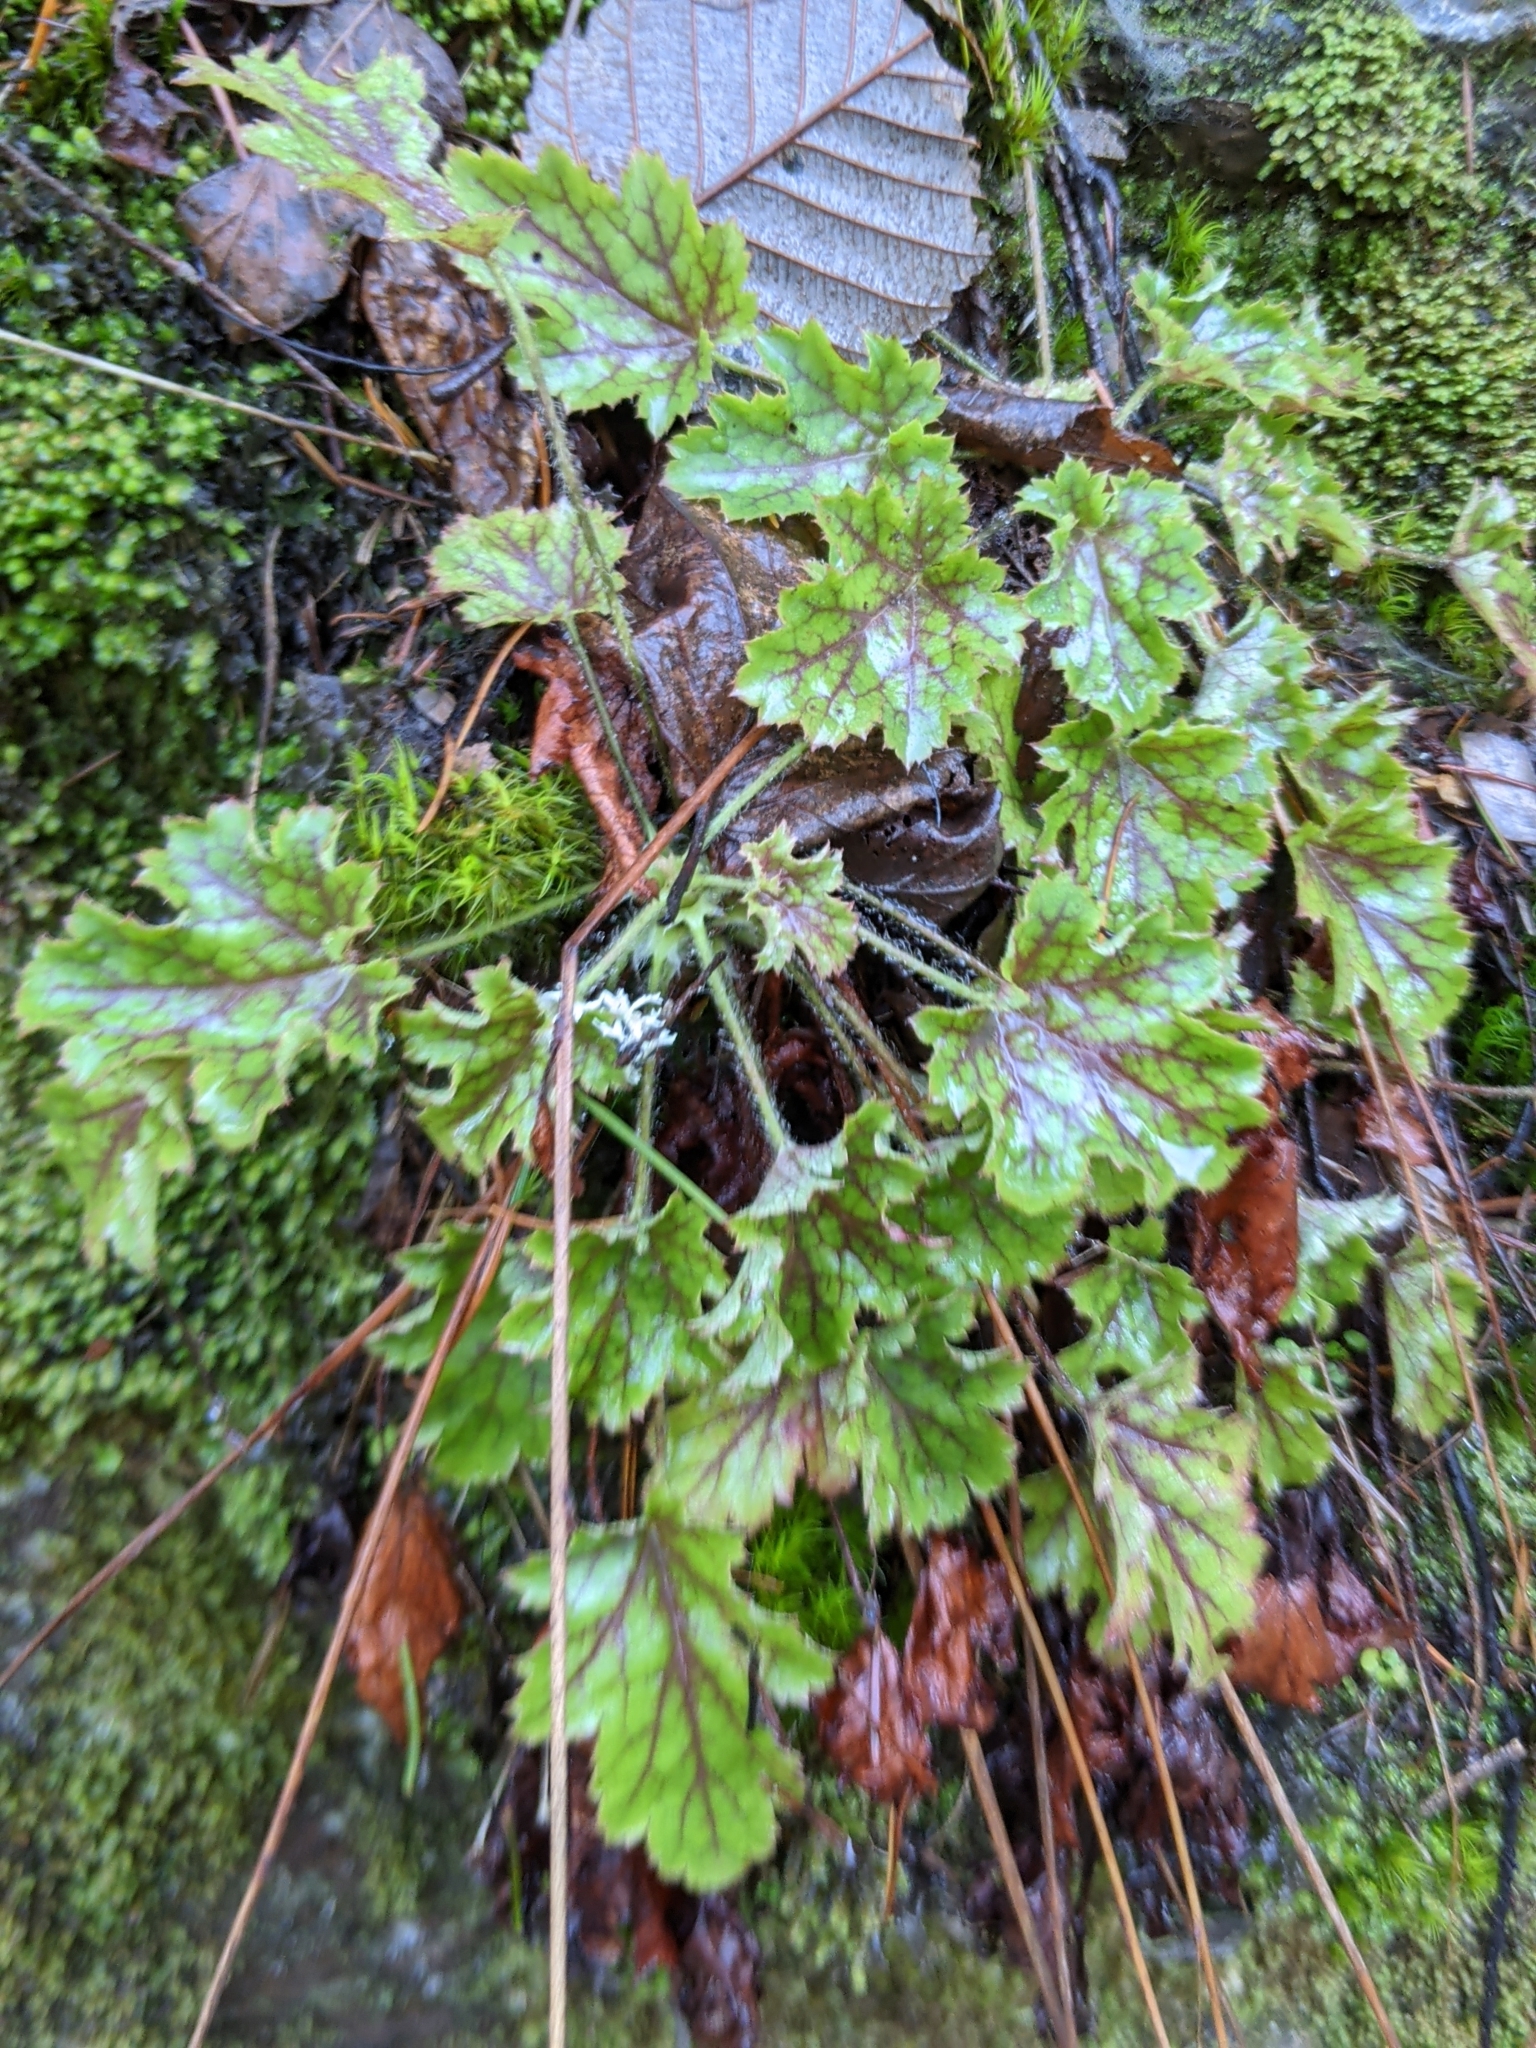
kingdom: Plantae
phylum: Tracheophyta
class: Magnoliopsida
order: Saxifragales
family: Saxifragaceae
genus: Heuchera
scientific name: Heuchera micrantha
